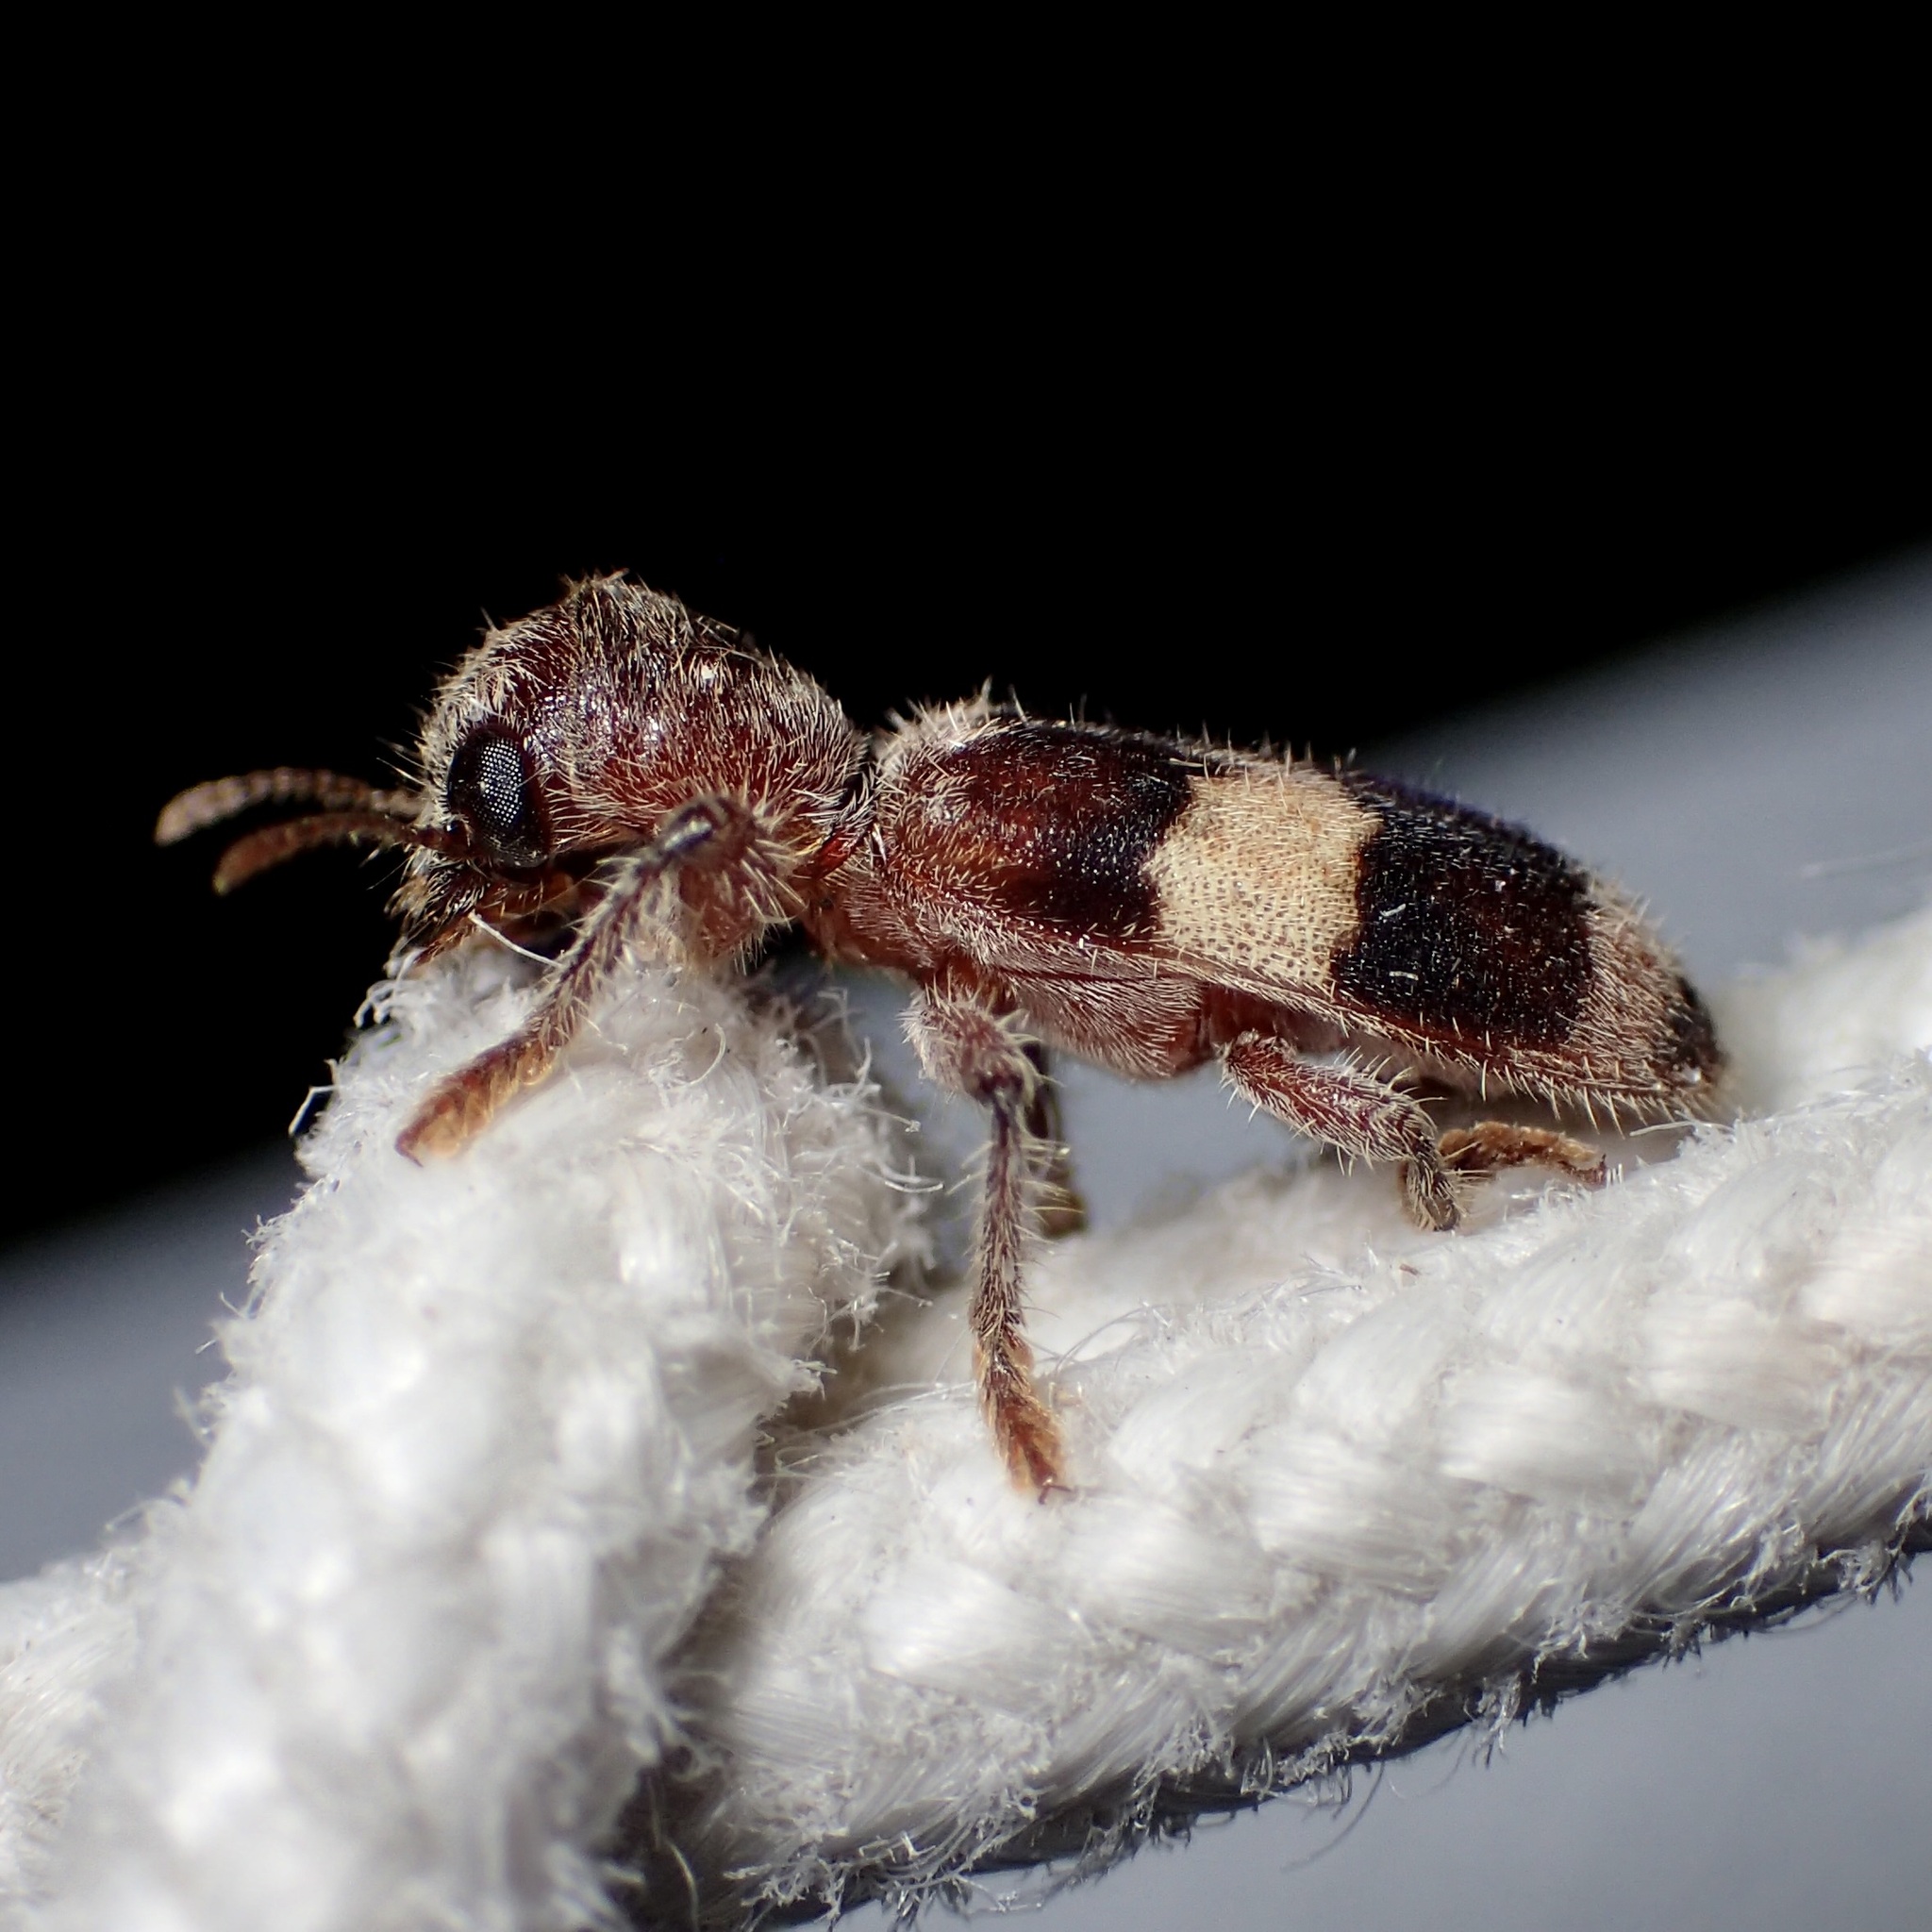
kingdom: Animalia
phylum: Arthropoda
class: Insecta
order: Coleoptera
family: Cleridae
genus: Enoclerus
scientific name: Enoclerus quadrisignatus
